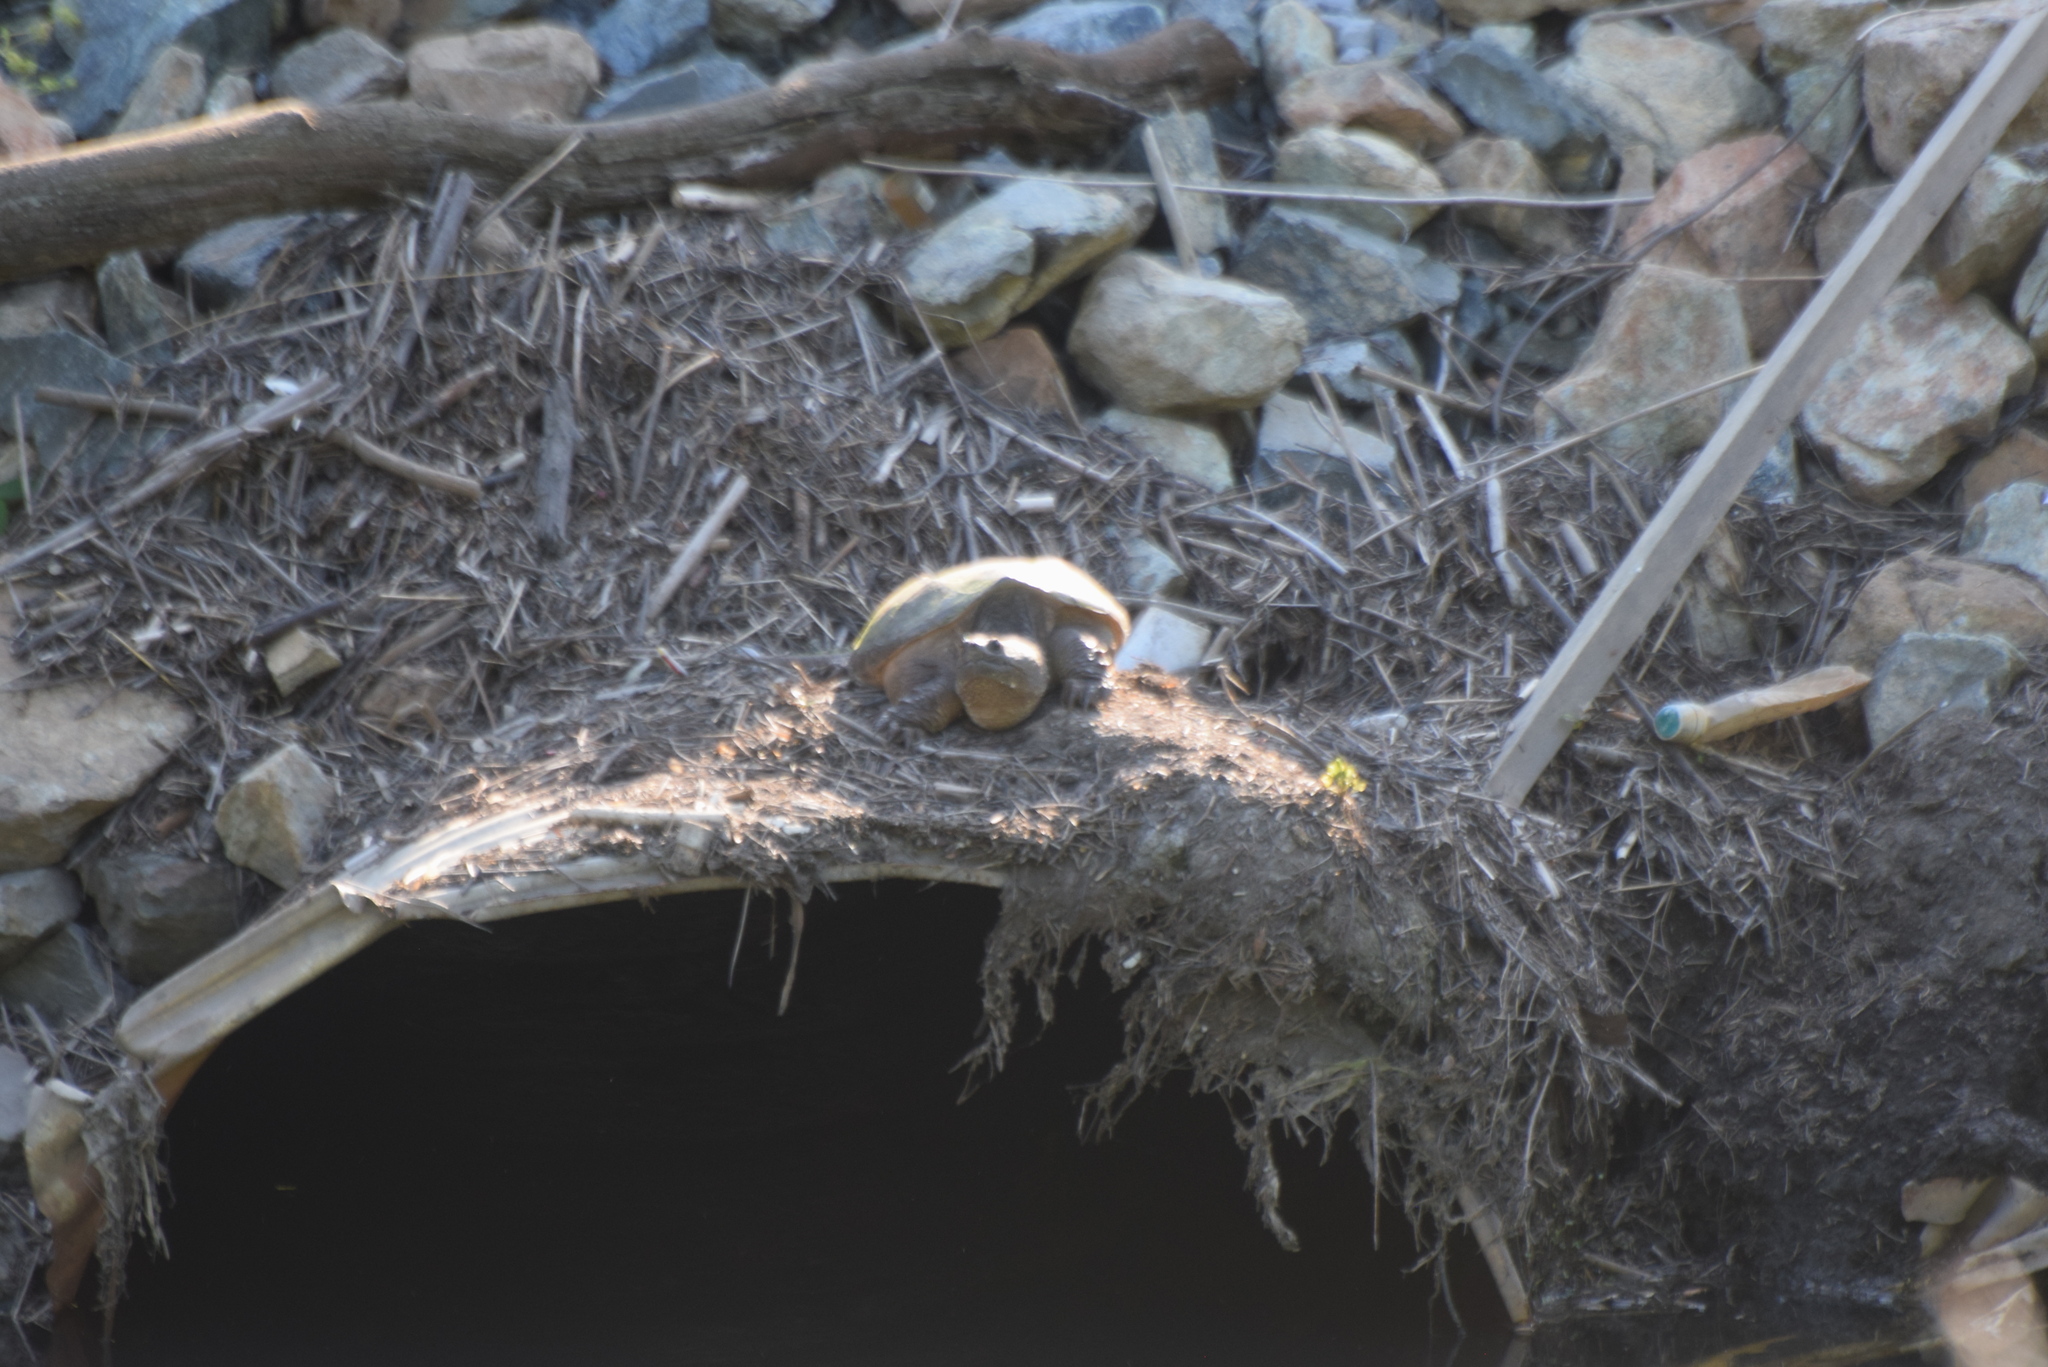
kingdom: Animalia
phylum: Chordata
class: Testudines
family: Chelydridae
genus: Chelydra
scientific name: Chelydra serpentina
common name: Common snapping turtle
